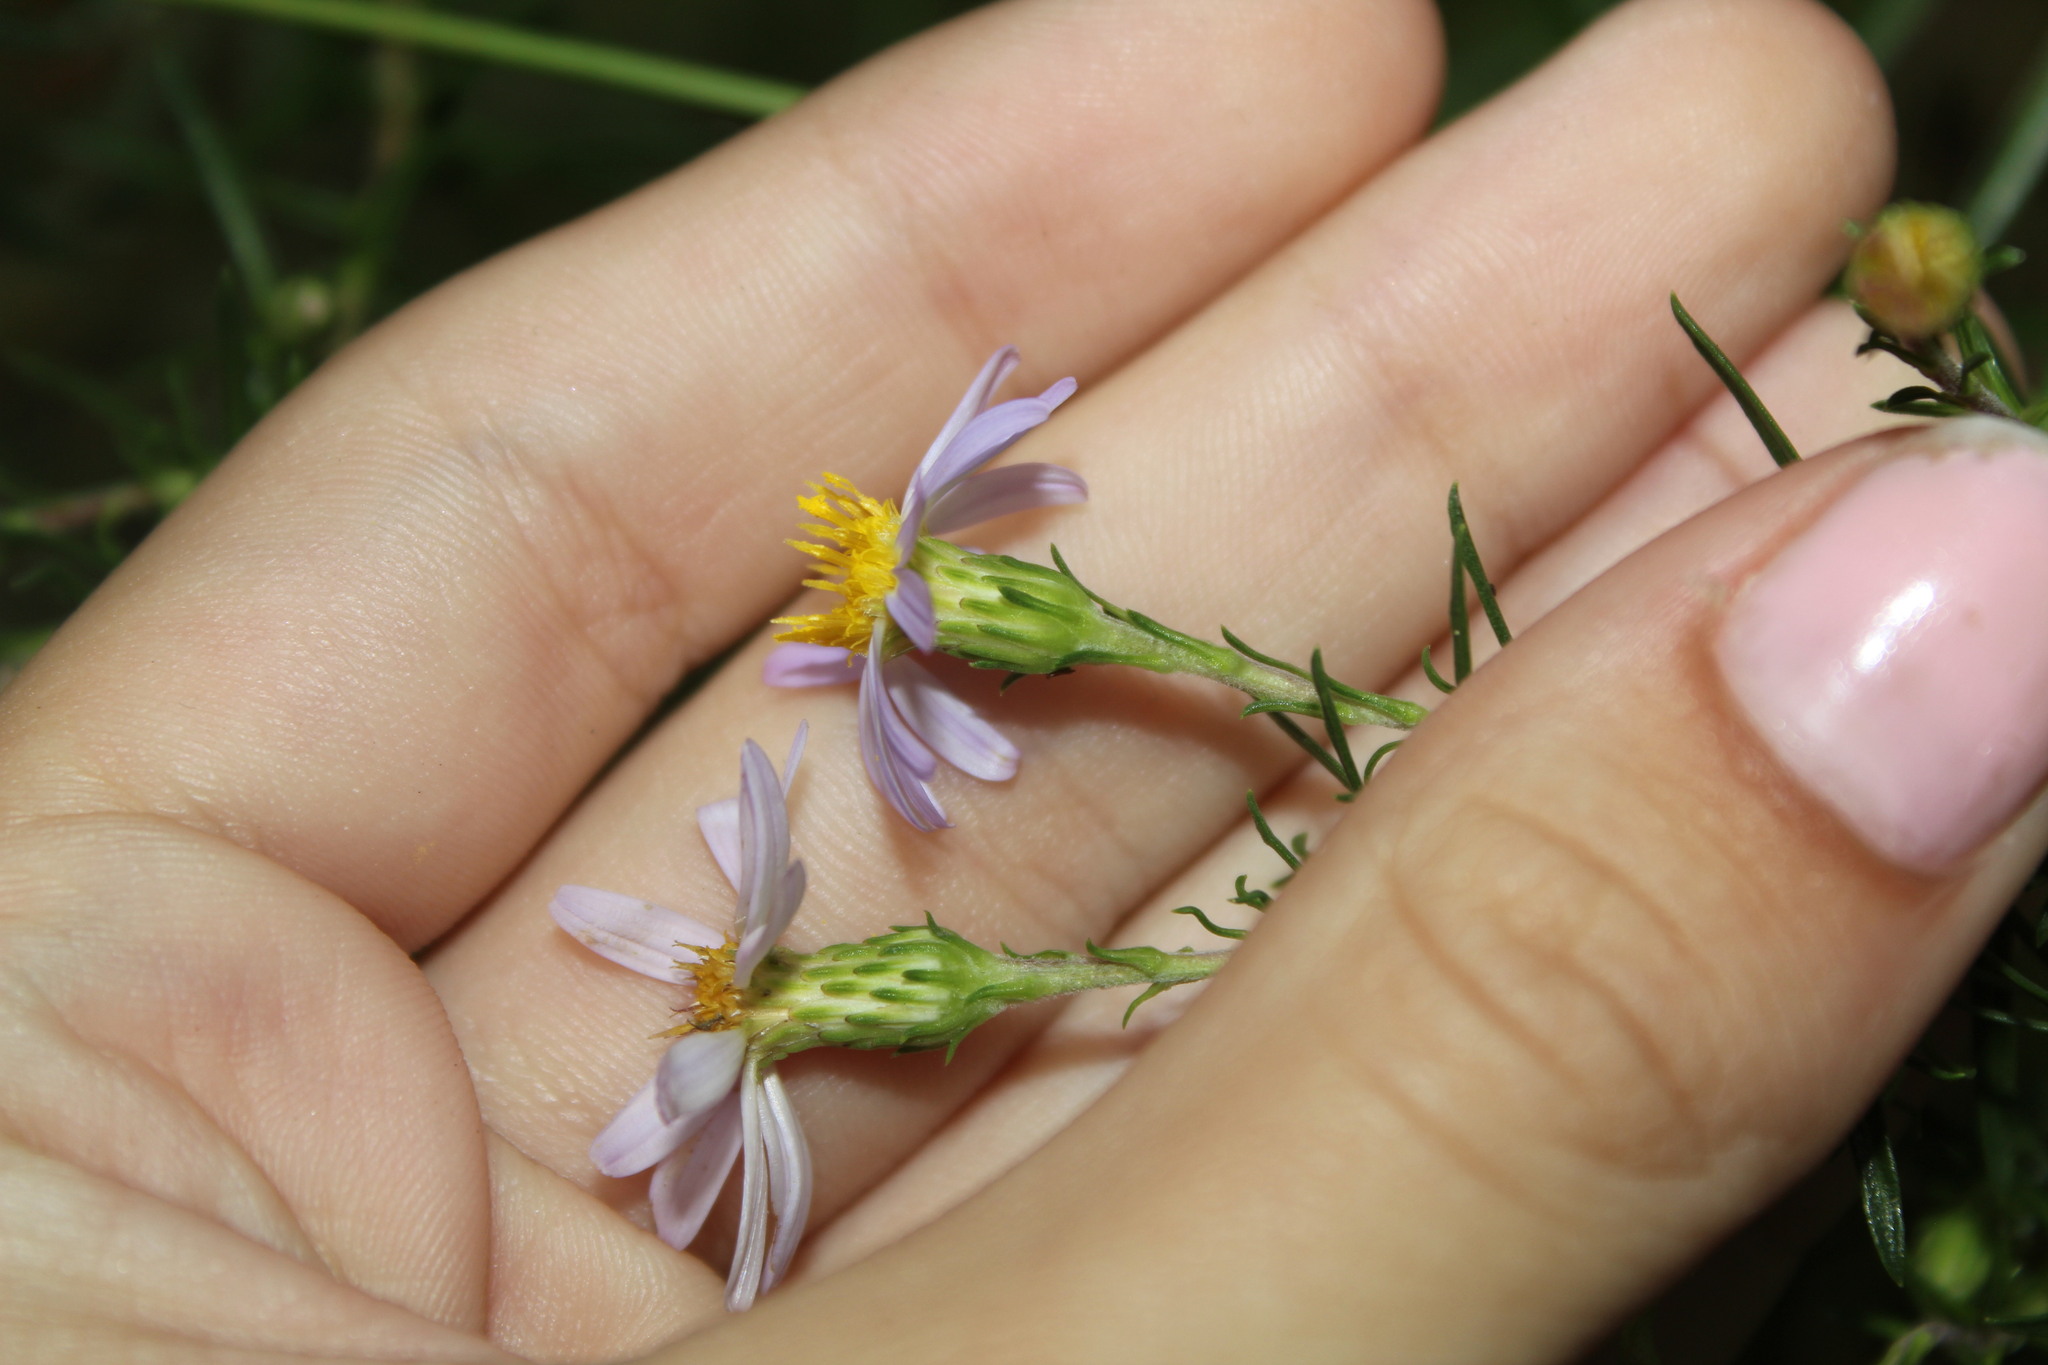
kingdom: Plantae
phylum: Tracheophyta
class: Magnoliopsida
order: Asterales
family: Asteraceae
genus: Ionactis
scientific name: Ionactis linariifolia
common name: Flax-leaf aster
